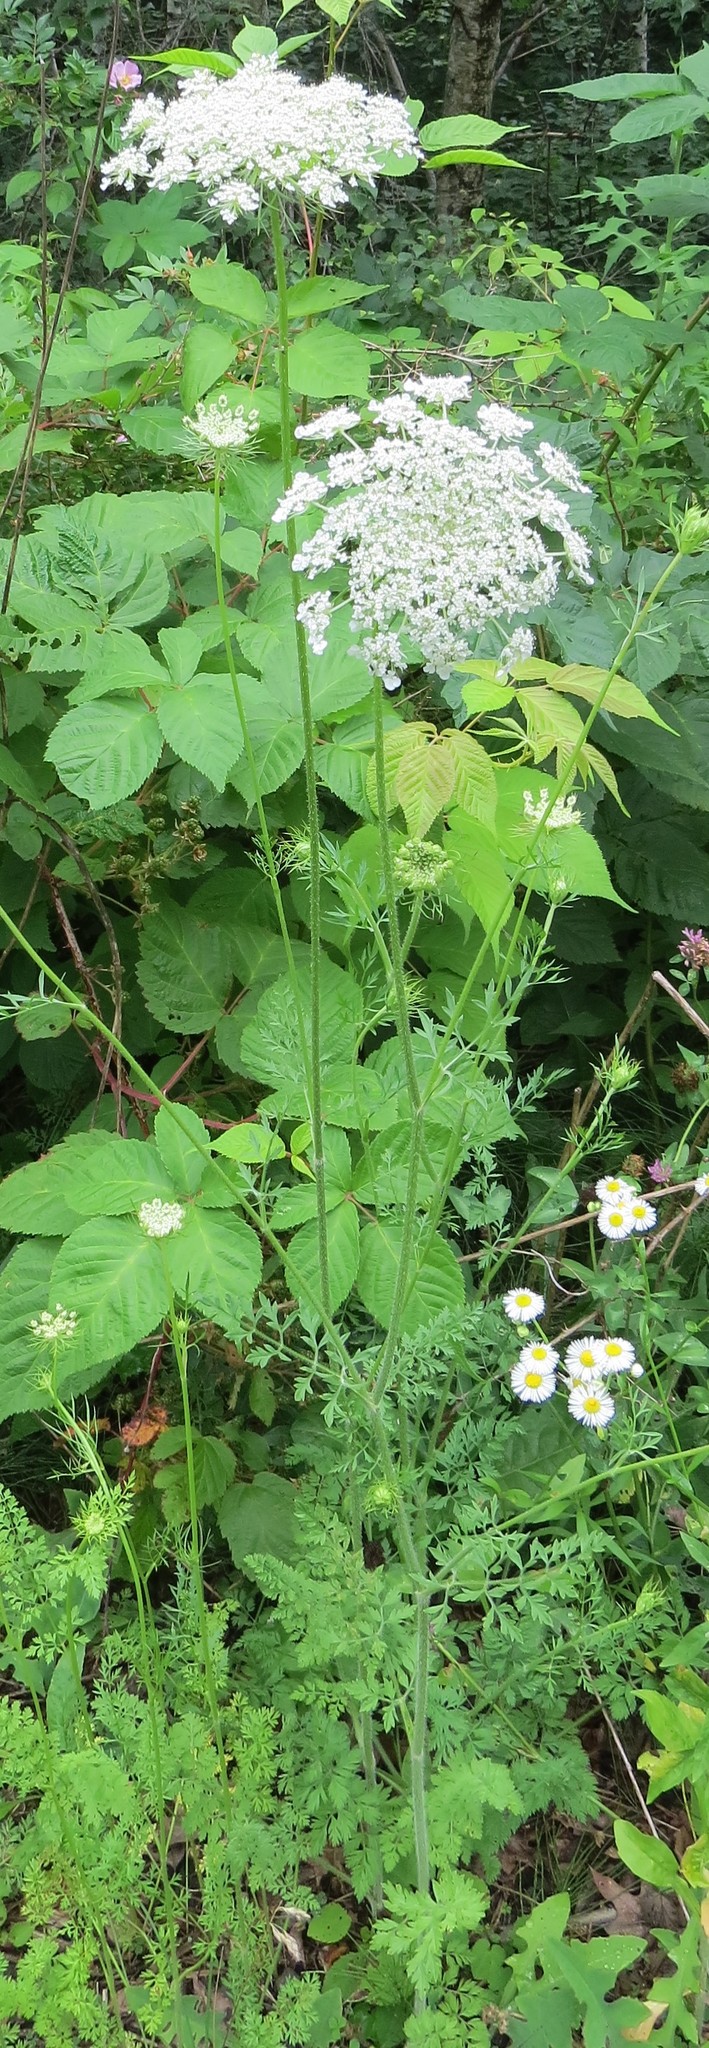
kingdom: Plantae
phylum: Tracheophyta
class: Magnoliopsida
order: Apiales
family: Apiaceae
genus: Daucus
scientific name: Daucus carota
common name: Wild carrot
